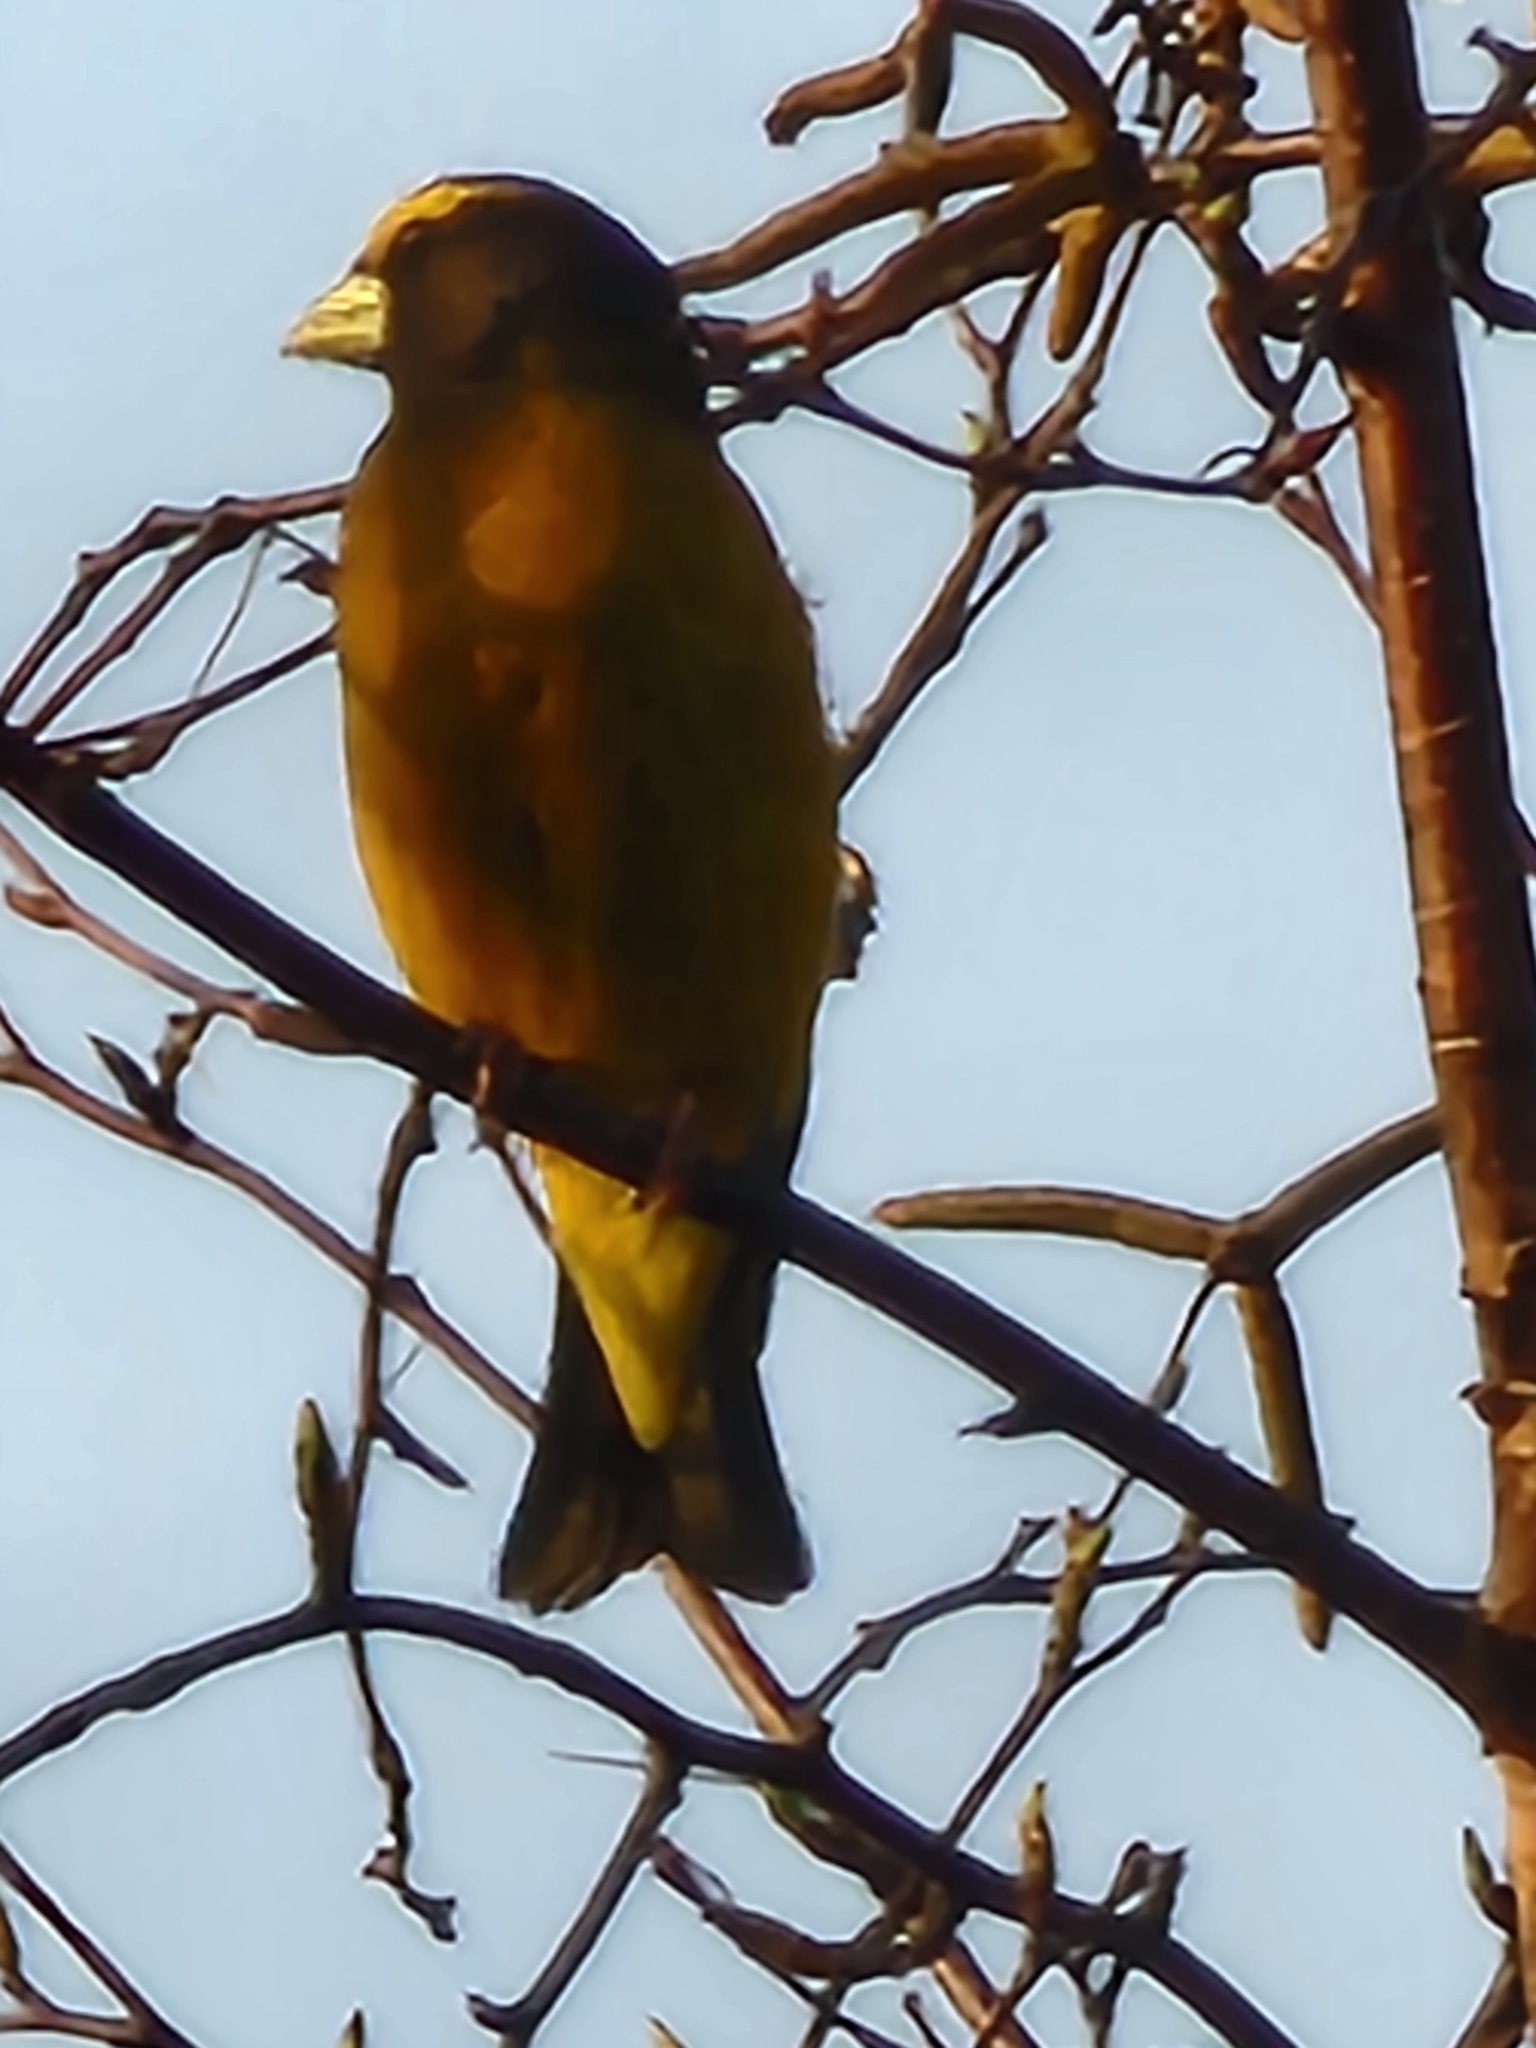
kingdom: Animalia
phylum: Chordata
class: Aves
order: Passeriformes
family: Fringillidae
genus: Hesperiphona
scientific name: Hesperiphona vespertina
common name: Evening grosbeak
